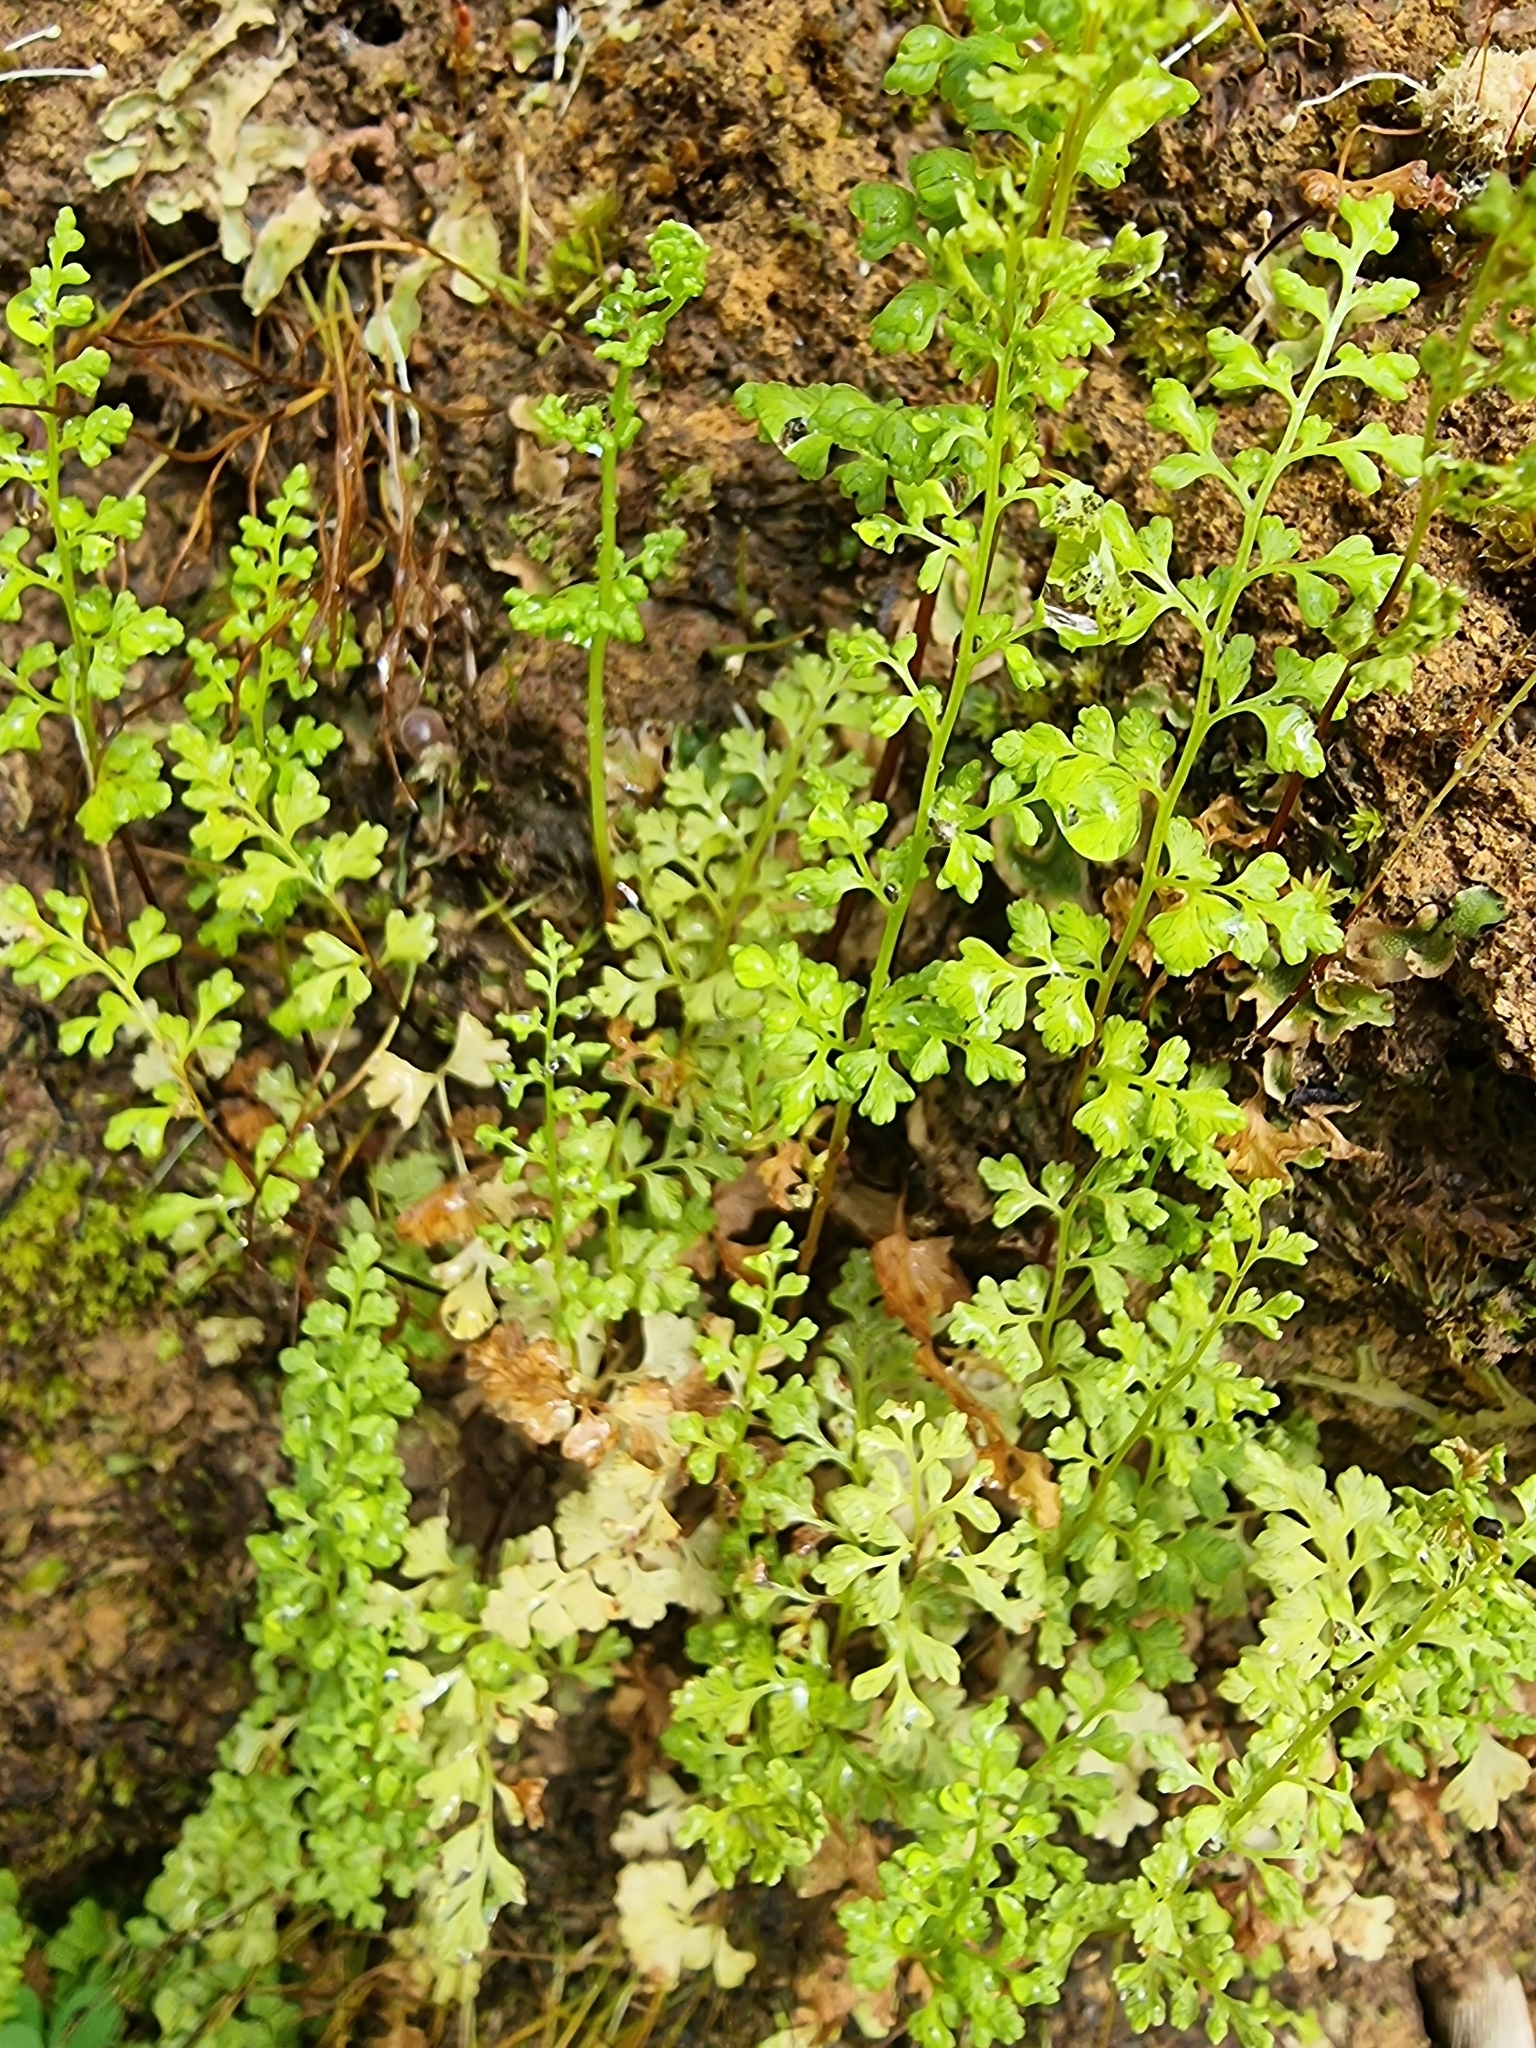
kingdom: Plantae
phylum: Tracheophyta
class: Polypodiopsida
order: Polypodiales
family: Pteridaceae
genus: Anogramma
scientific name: Anogramma leptophylla
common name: Jersey fern
